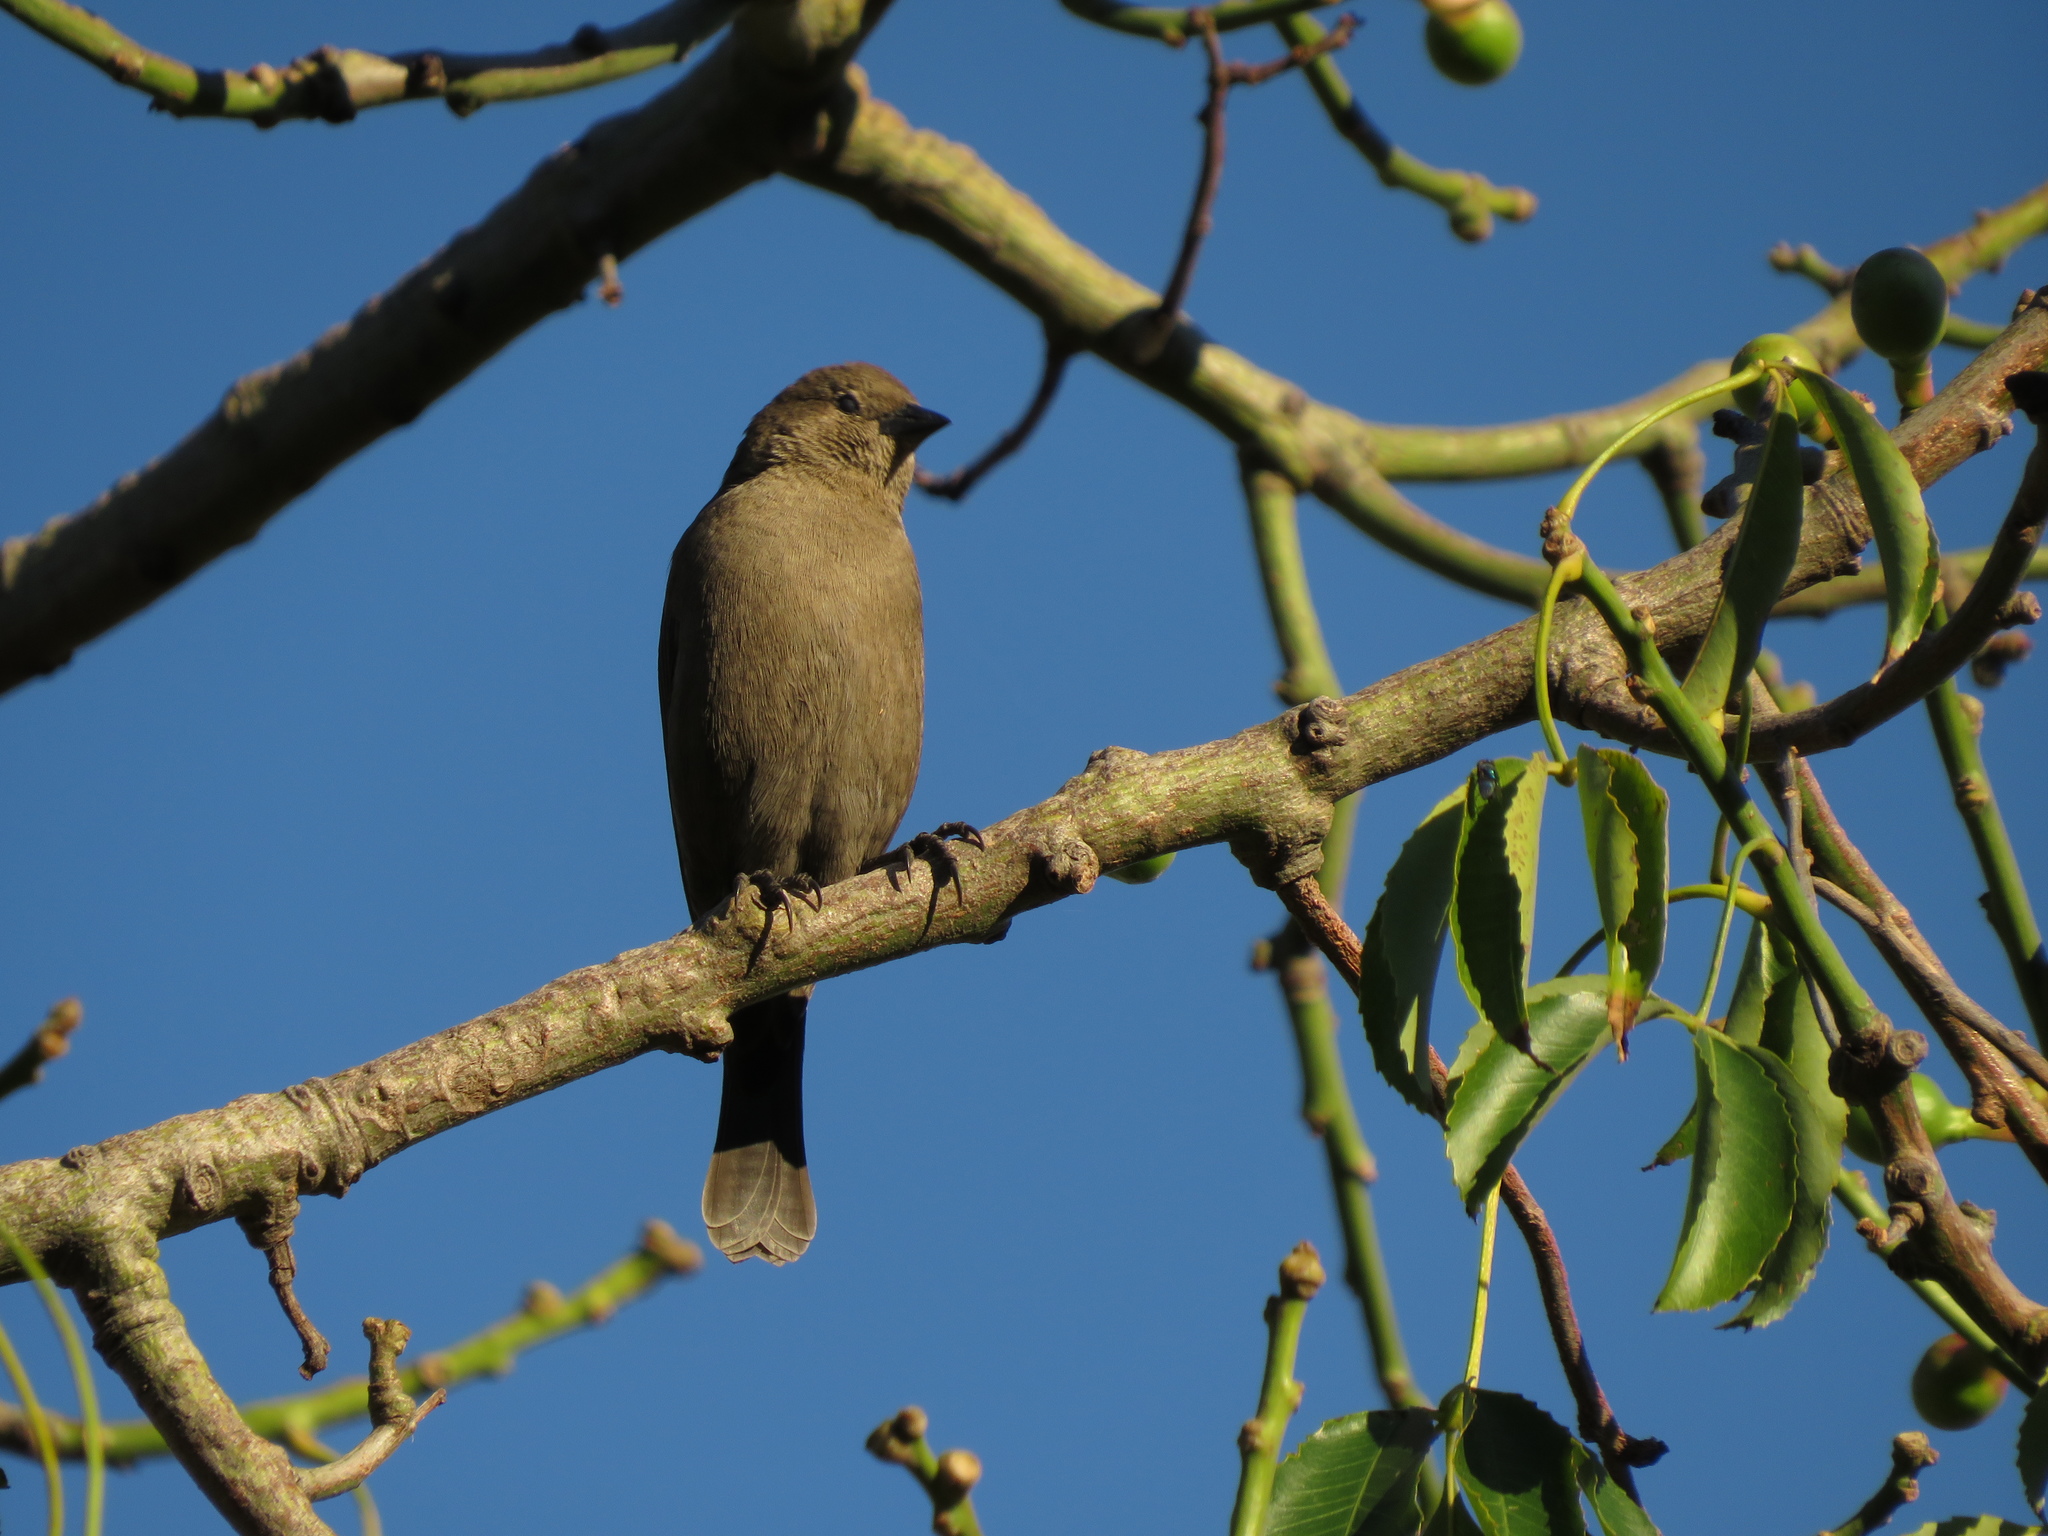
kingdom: Animalia
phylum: Chordata
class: Aves
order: Passeriformes
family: Icteridae
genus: Molothrus
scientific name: Molothrus bonariensis
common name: Shiny cowbird
